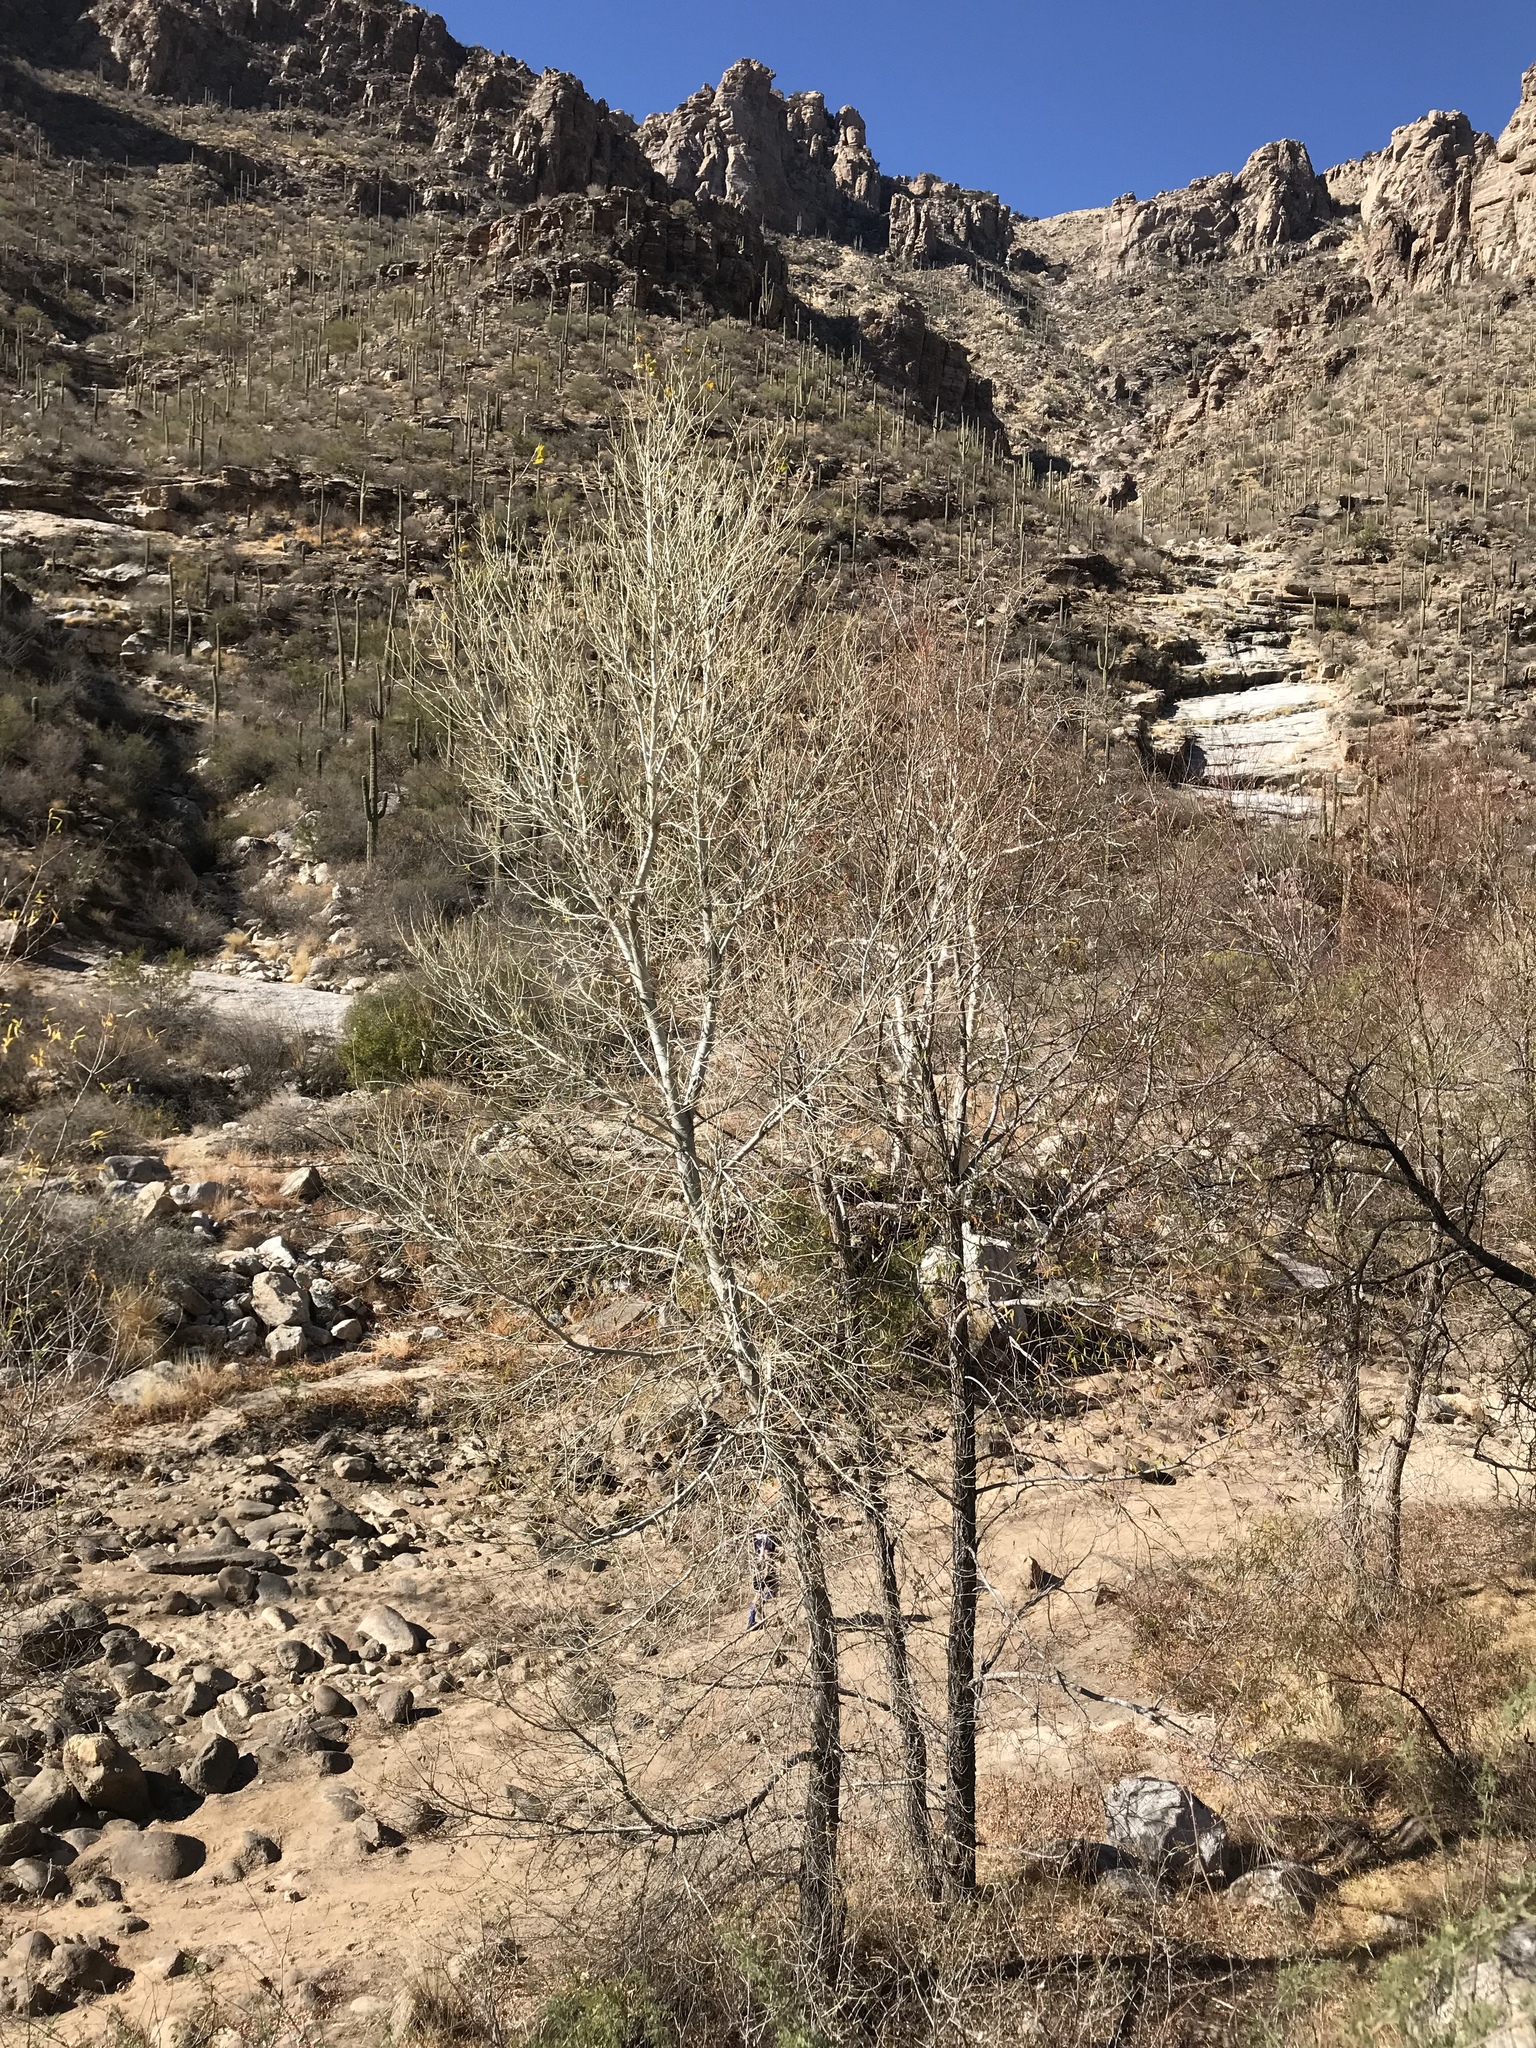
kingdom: Plantae
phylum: Tracheophyta
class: Magnoliopsida
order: Malpighiales
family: Salicaceae
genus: Populus
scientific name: Populus fremontii
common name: Fremont's cottonwood
